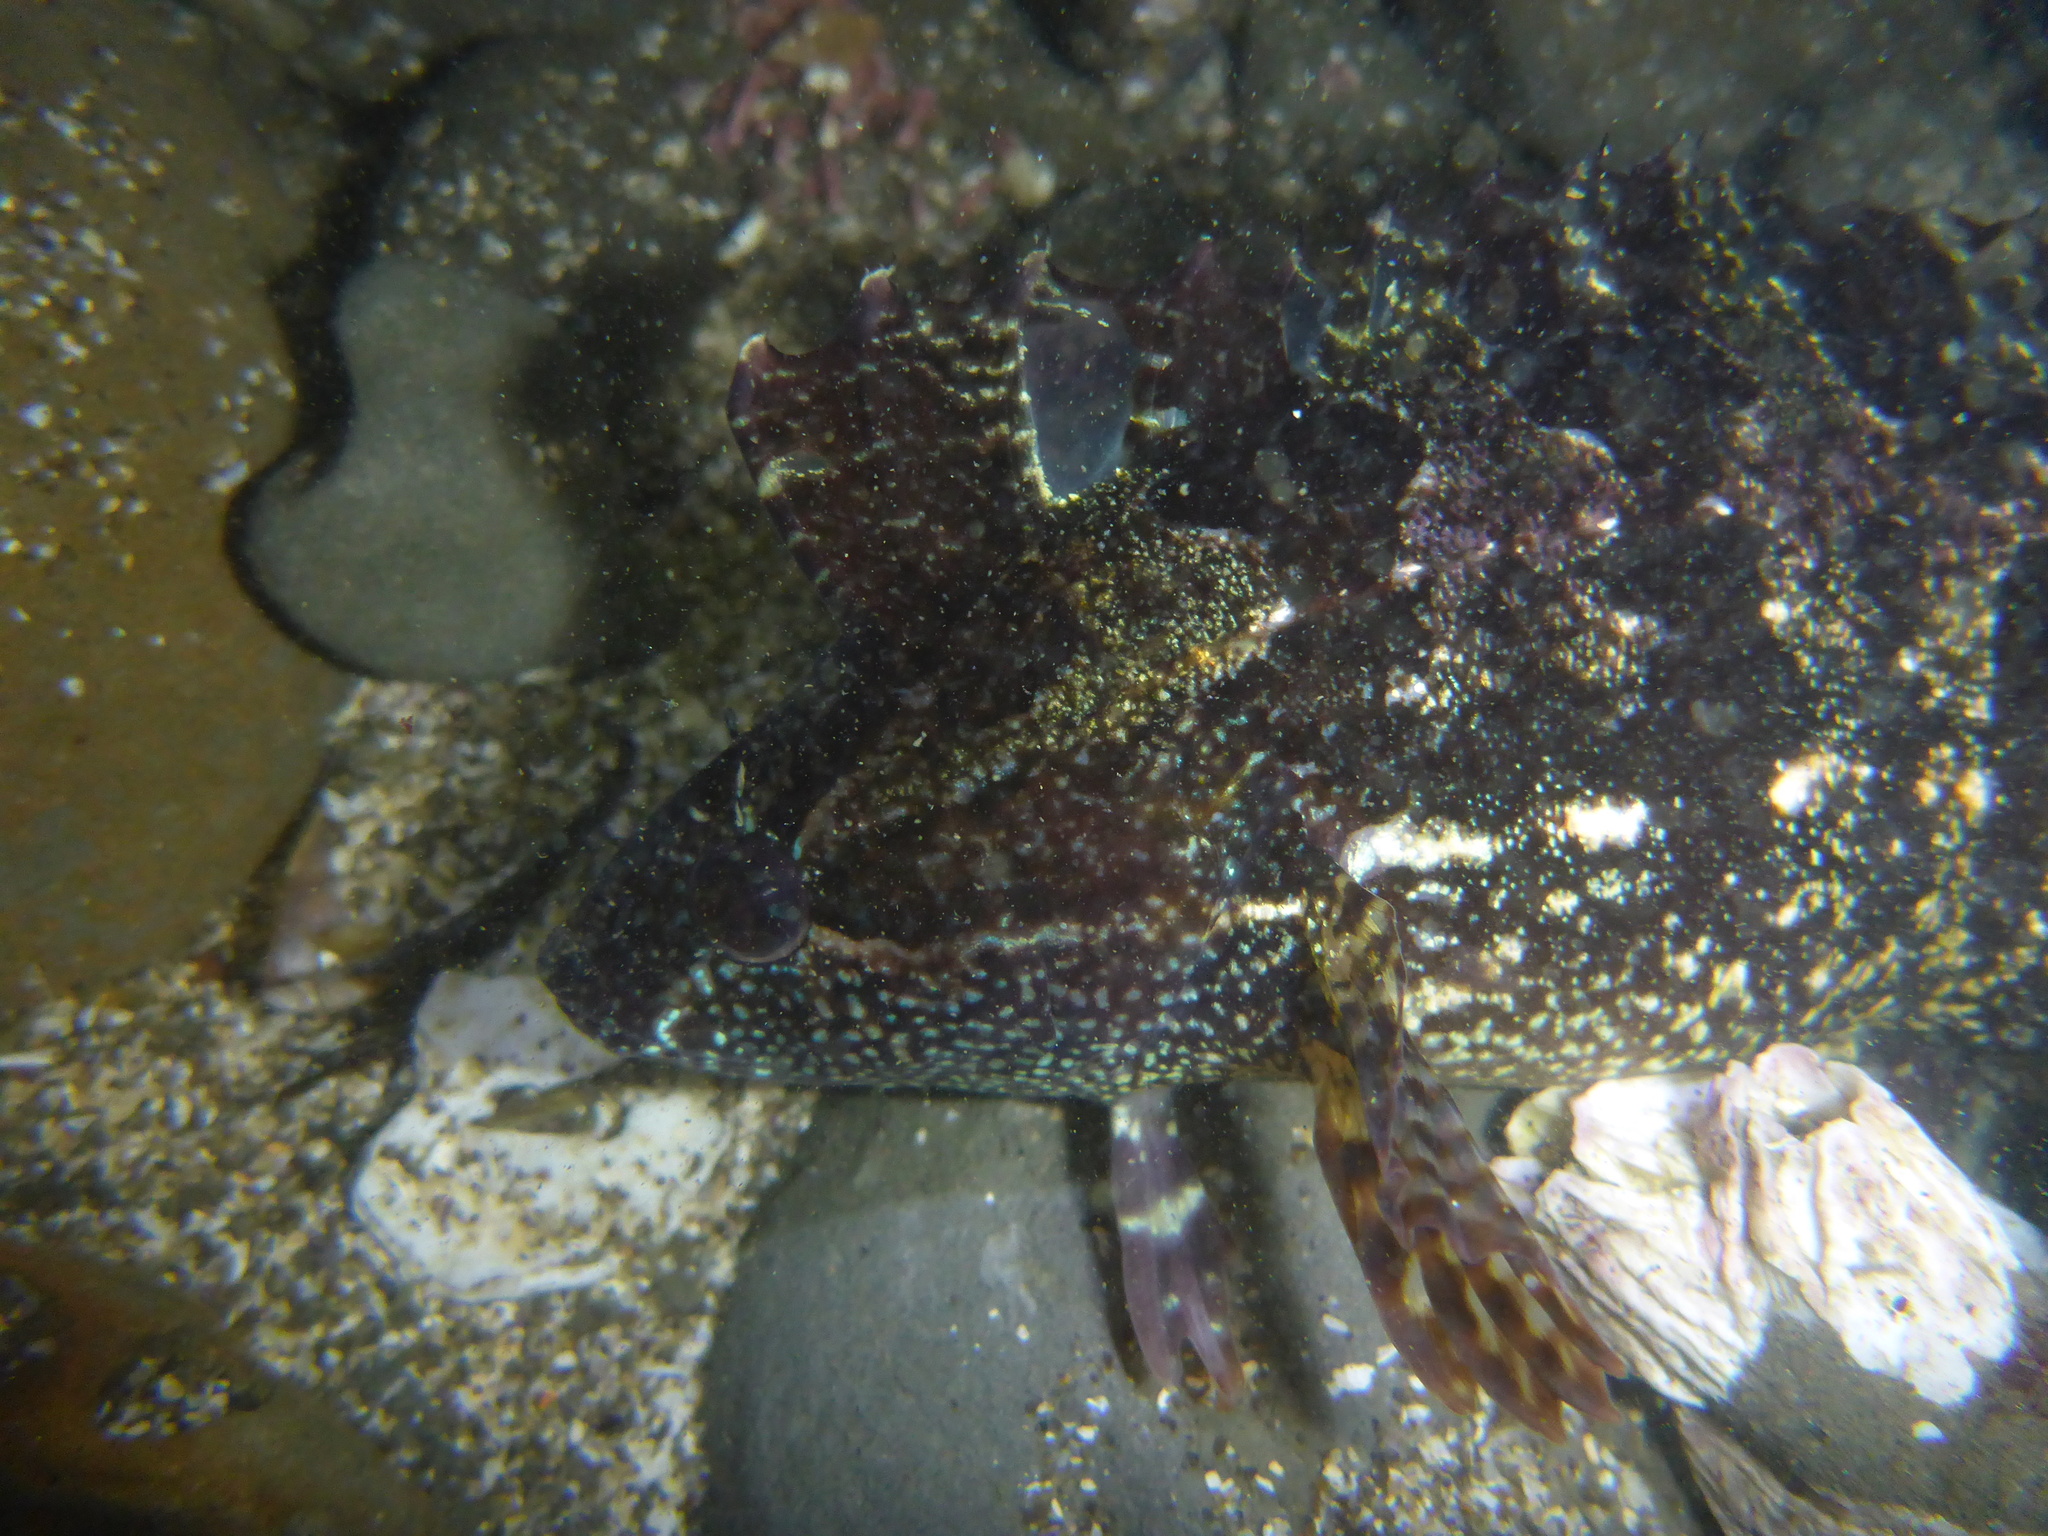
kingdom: Animalia
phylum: Chordata
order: Perciformes
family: Clinidae
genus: Gibbonsia
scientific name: Gibbonsia metzi
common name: Striped kelpfish
